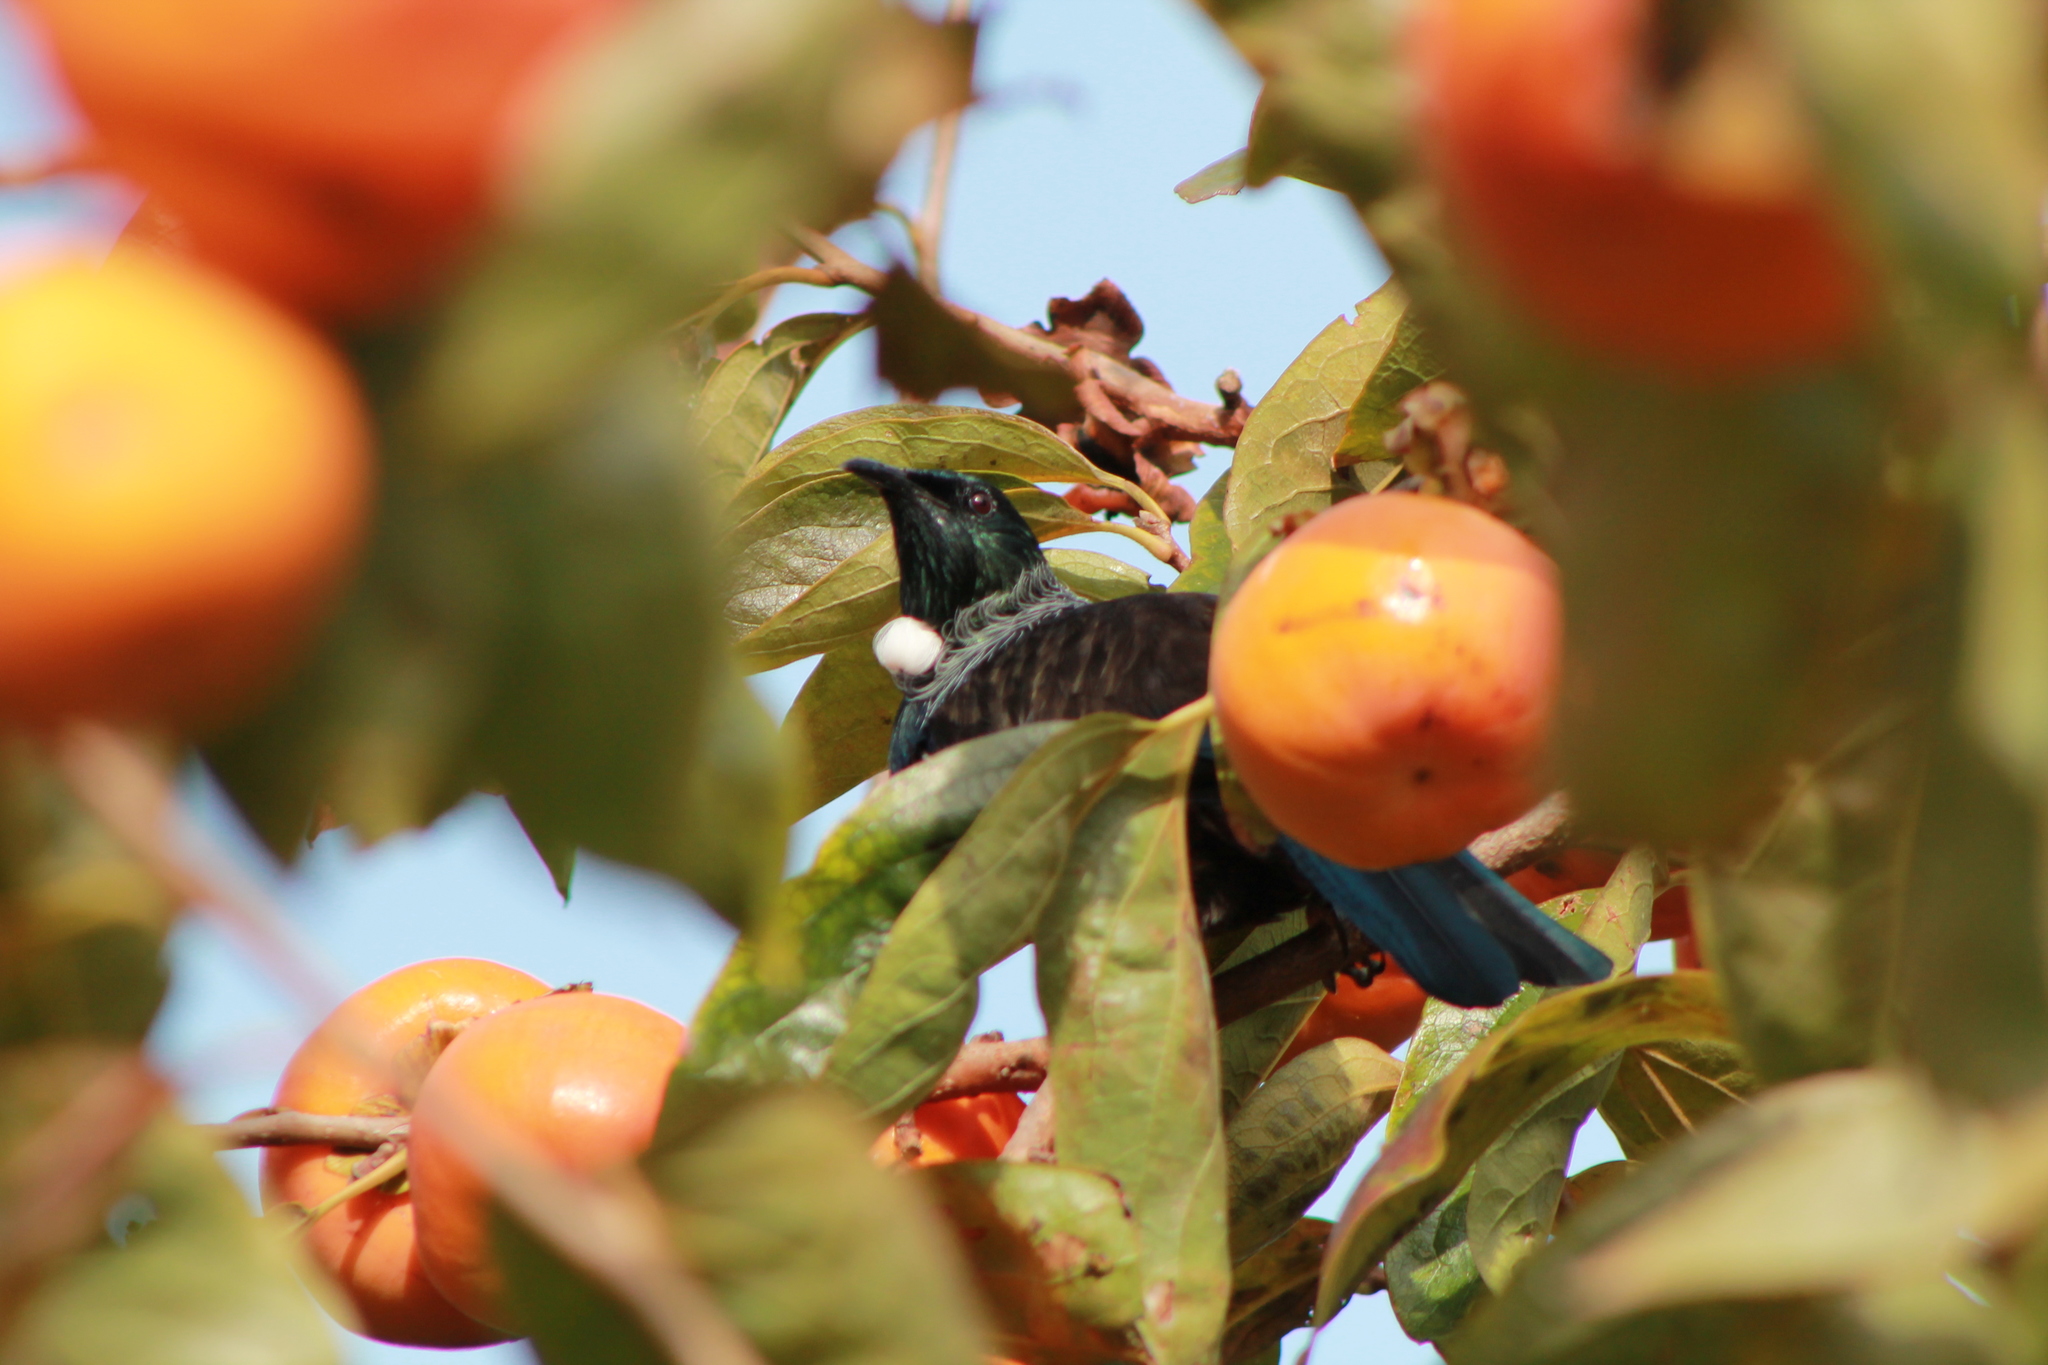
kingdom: Animalia
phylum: Chordata
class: Aves
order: Passeriformes
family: Meliphagidae
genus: Prosthemadera
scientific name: Prosthemadera novaeseelandiae
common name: Tui
